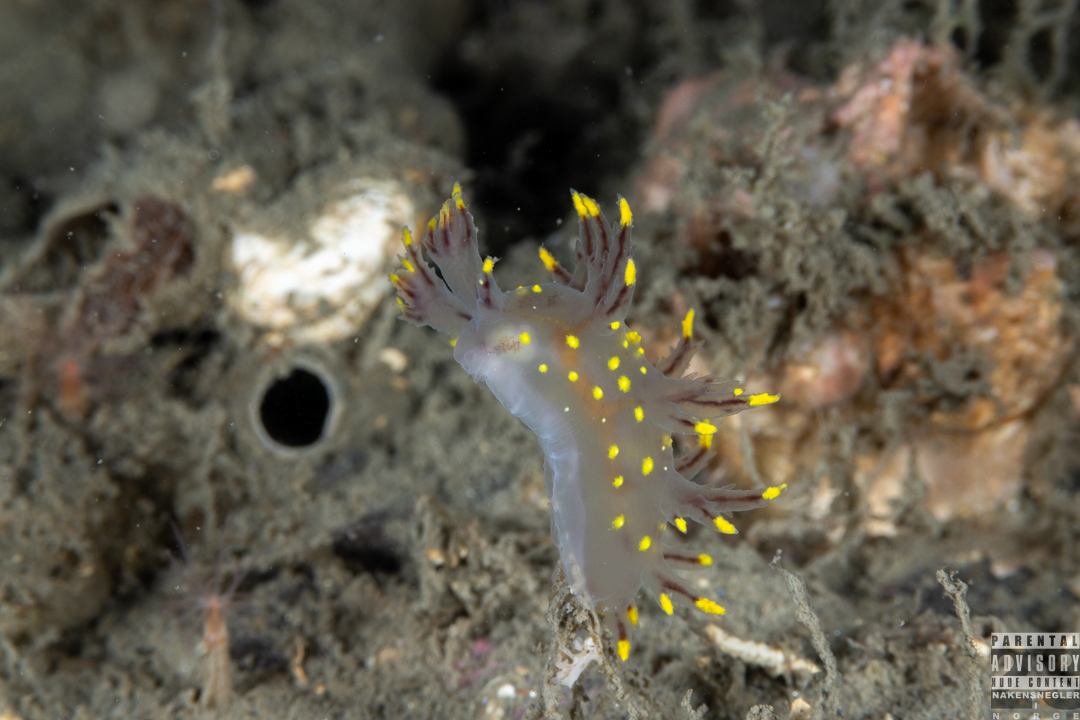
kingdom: Animalia
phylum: Mollusca
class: Gastropoda
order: Nudibranchia
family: Dendronotidae
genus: Dendronotus
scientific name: Dendronotus arcticus
